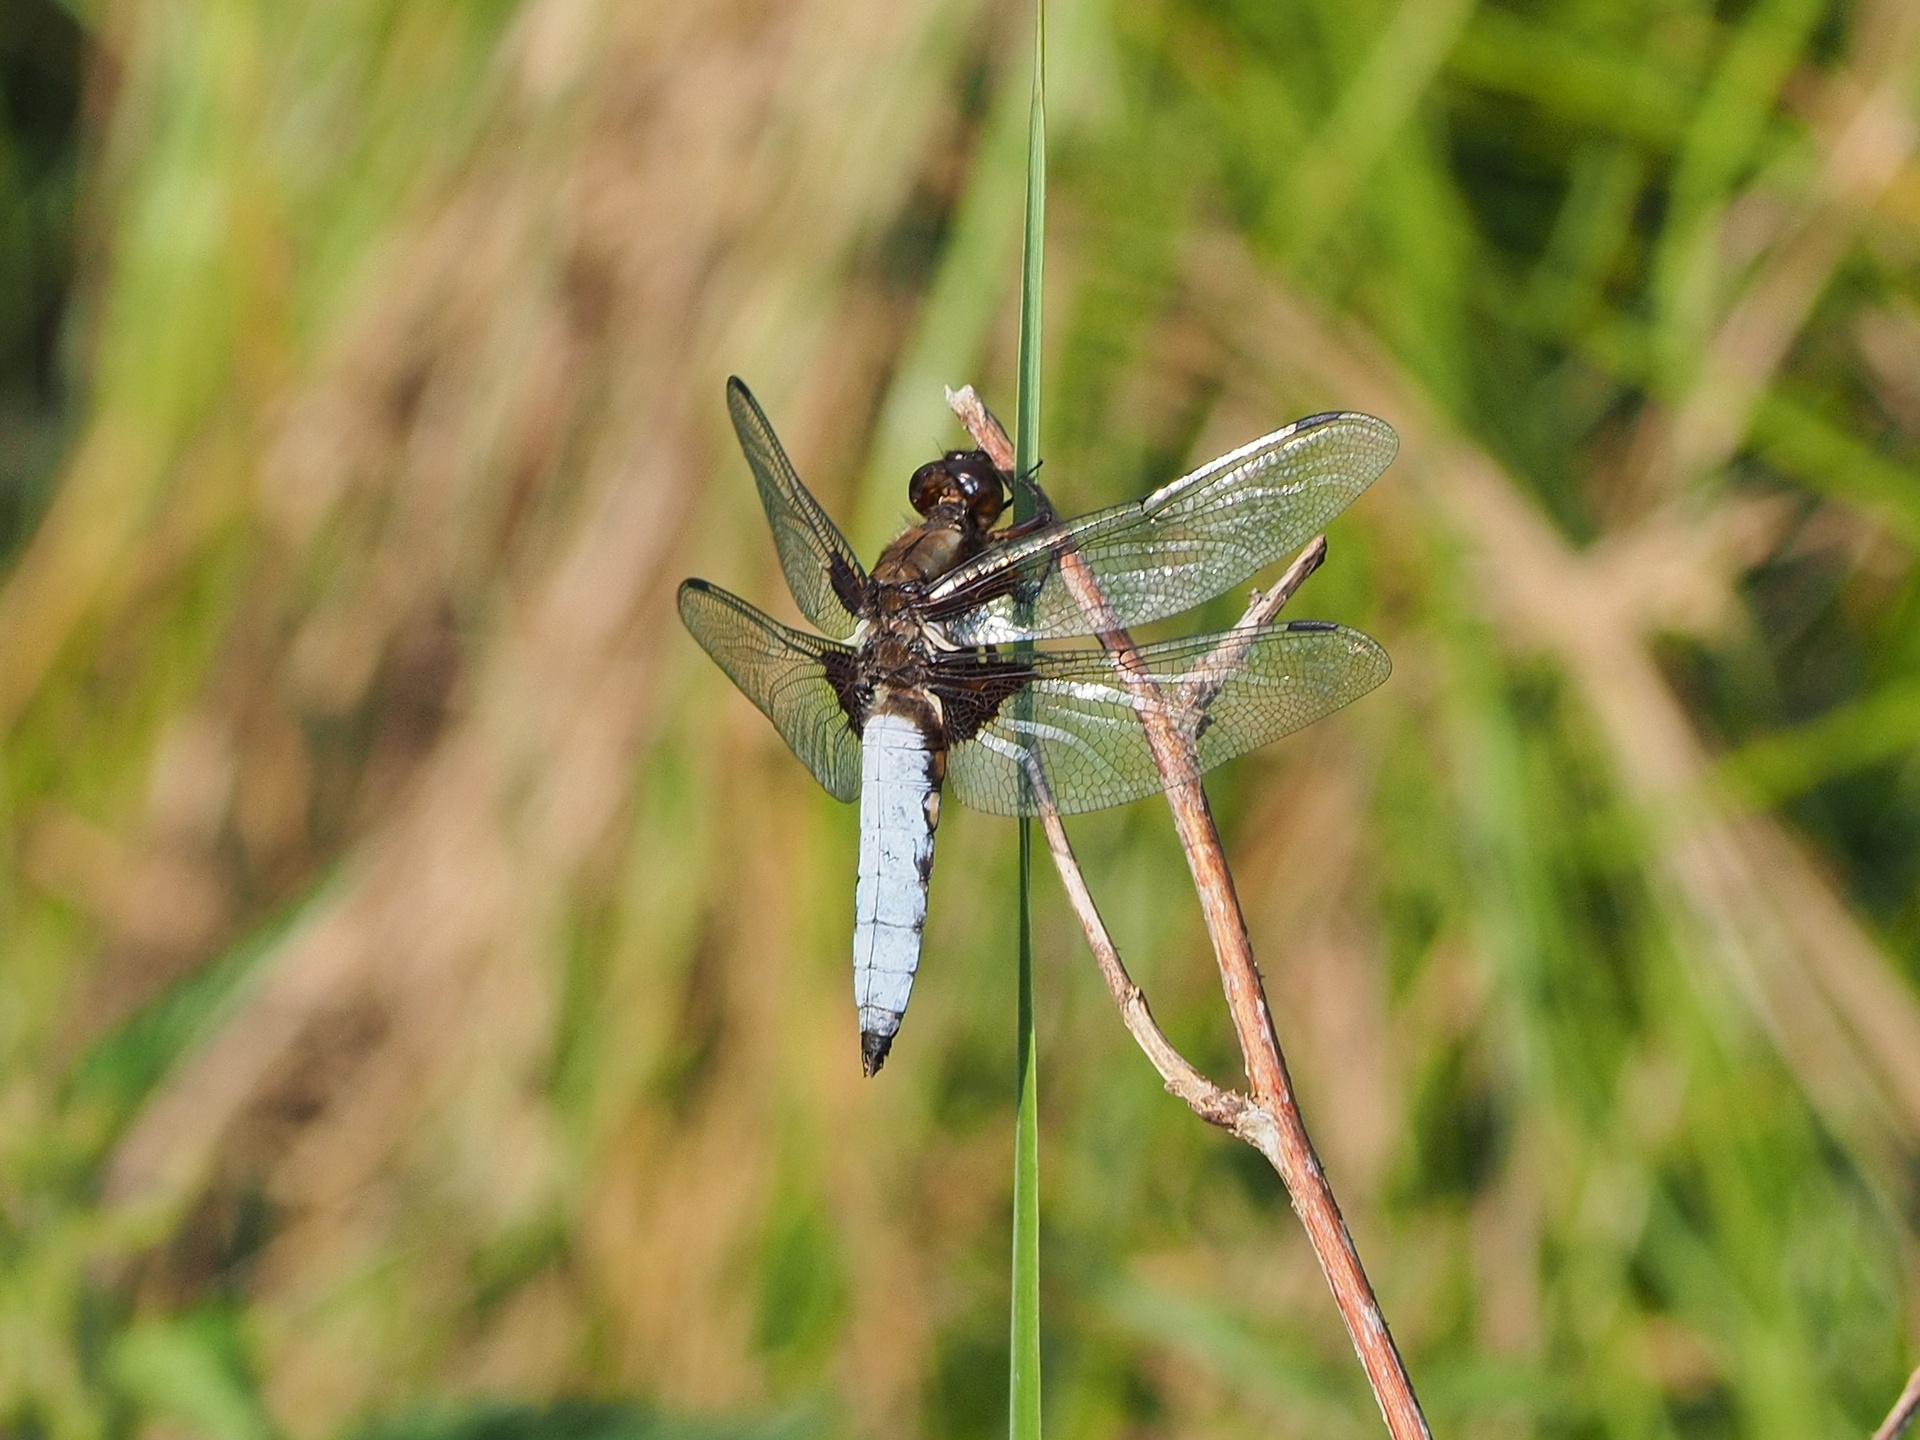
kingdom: Animalia
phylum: Arthropoda
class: Insecta
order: Odonata
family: Libellulidae
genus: Libellula
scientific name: Libellula depressa
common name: Broad-bodied chaser
